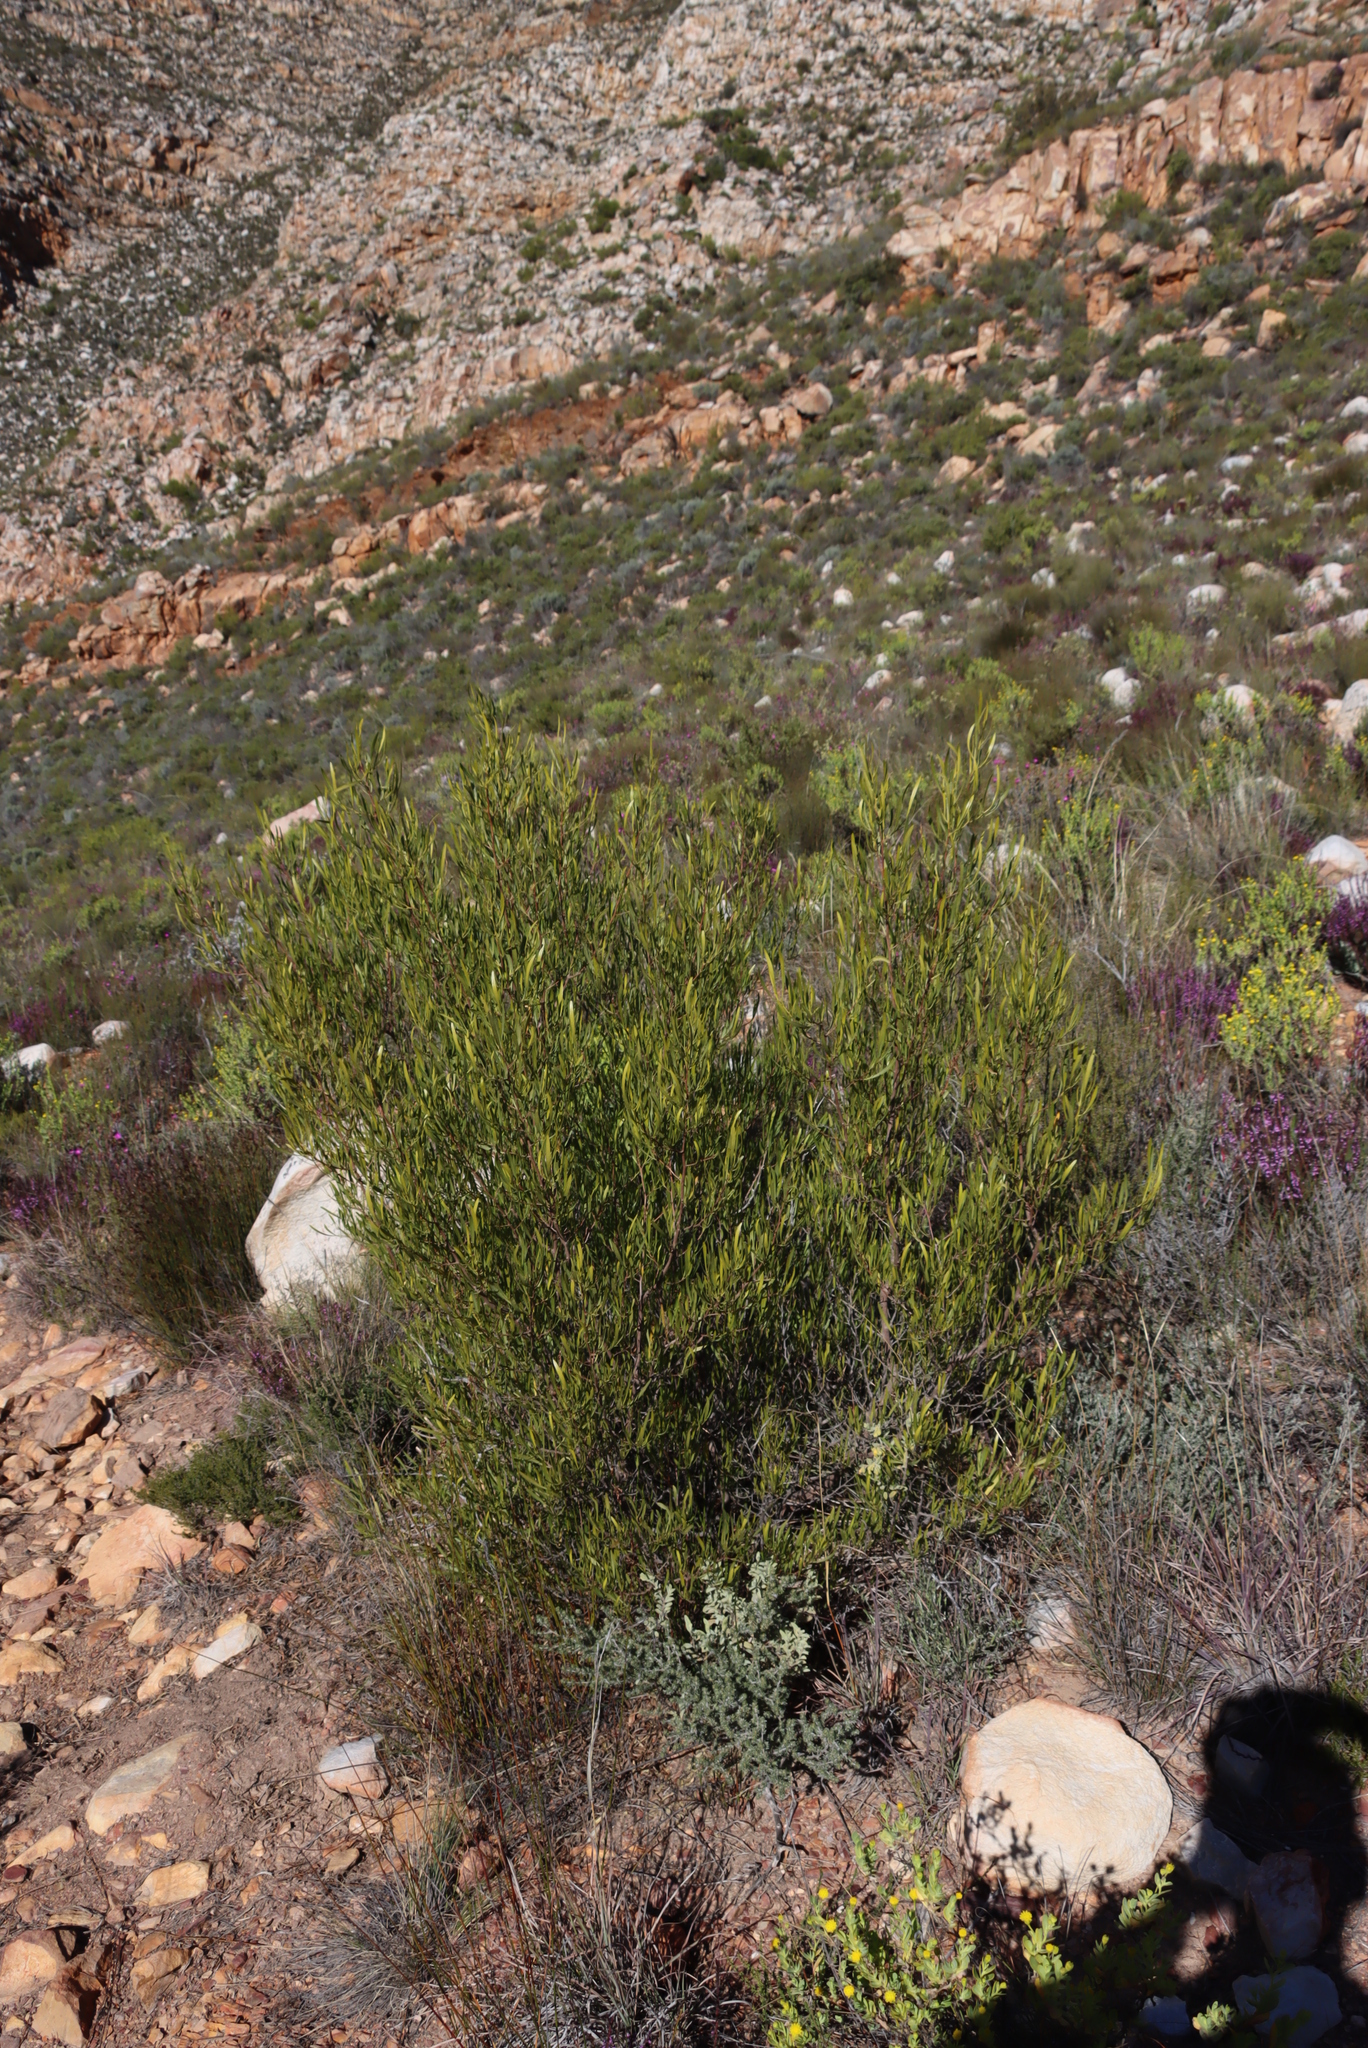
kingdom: Plantae
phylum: Tracheophyta
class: Magnoliopsida
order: Sapindales
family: Sapindaceae
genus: Dodonaea
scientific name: Dodonaea viscosa
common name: Hopbush
